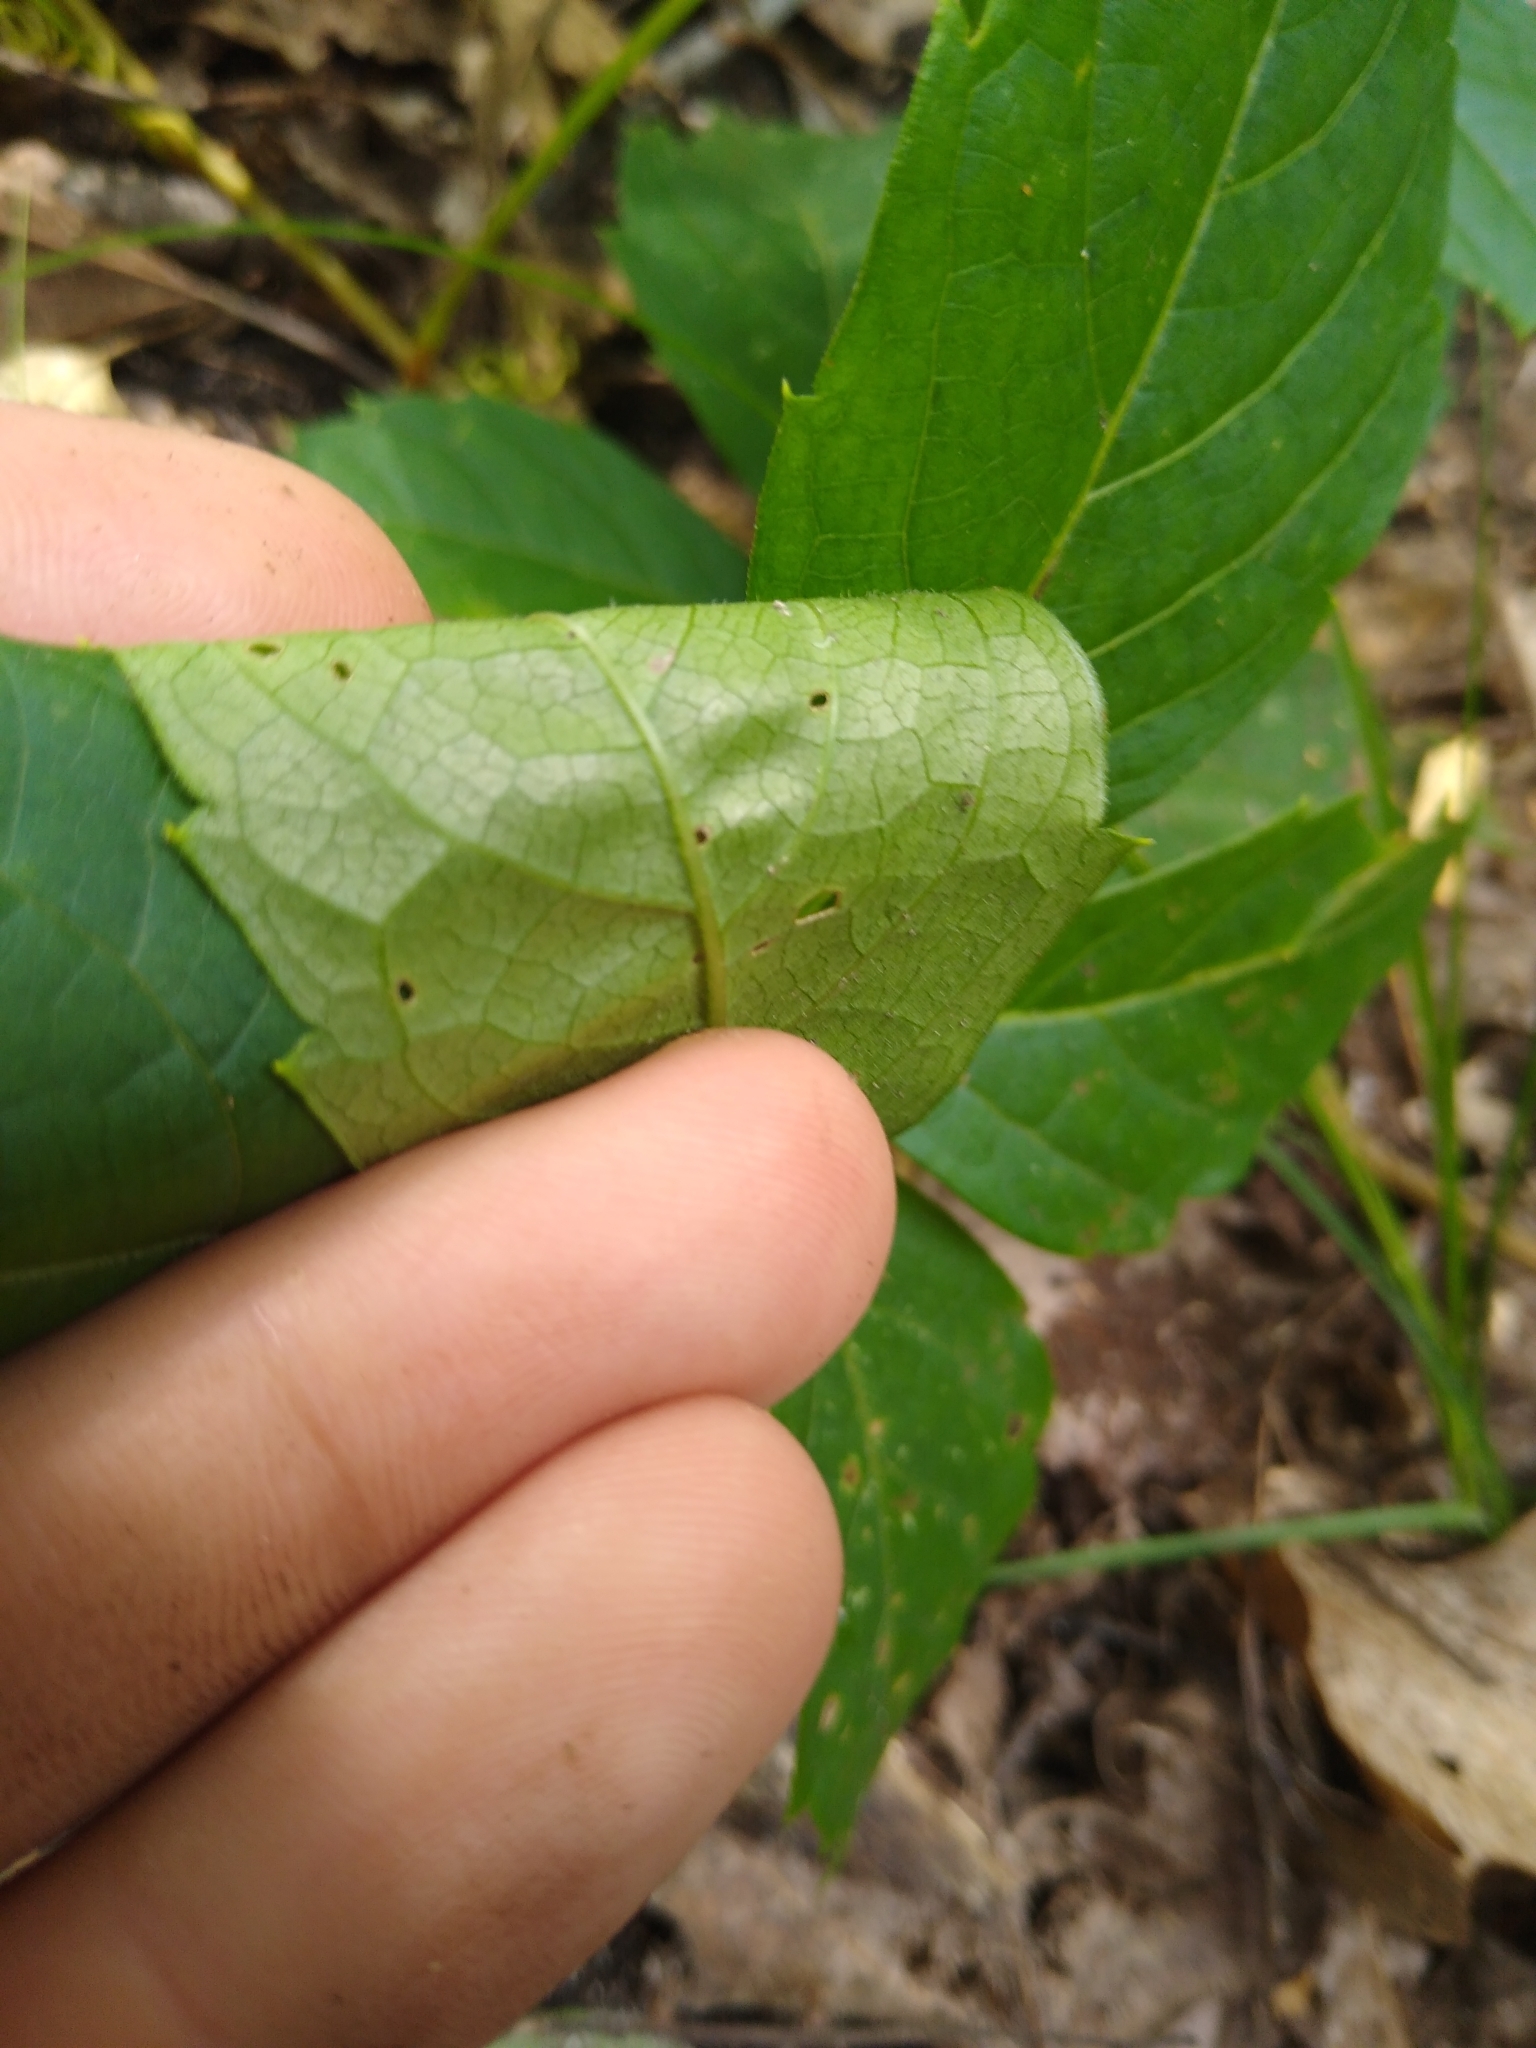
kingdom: Plantae
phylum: Tracheophyta
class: Magnoliopsida
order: Vitales
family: Vitaceae
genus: Parthenocissus
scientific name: Parthenocissus inserta
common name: False virginia-creeper
